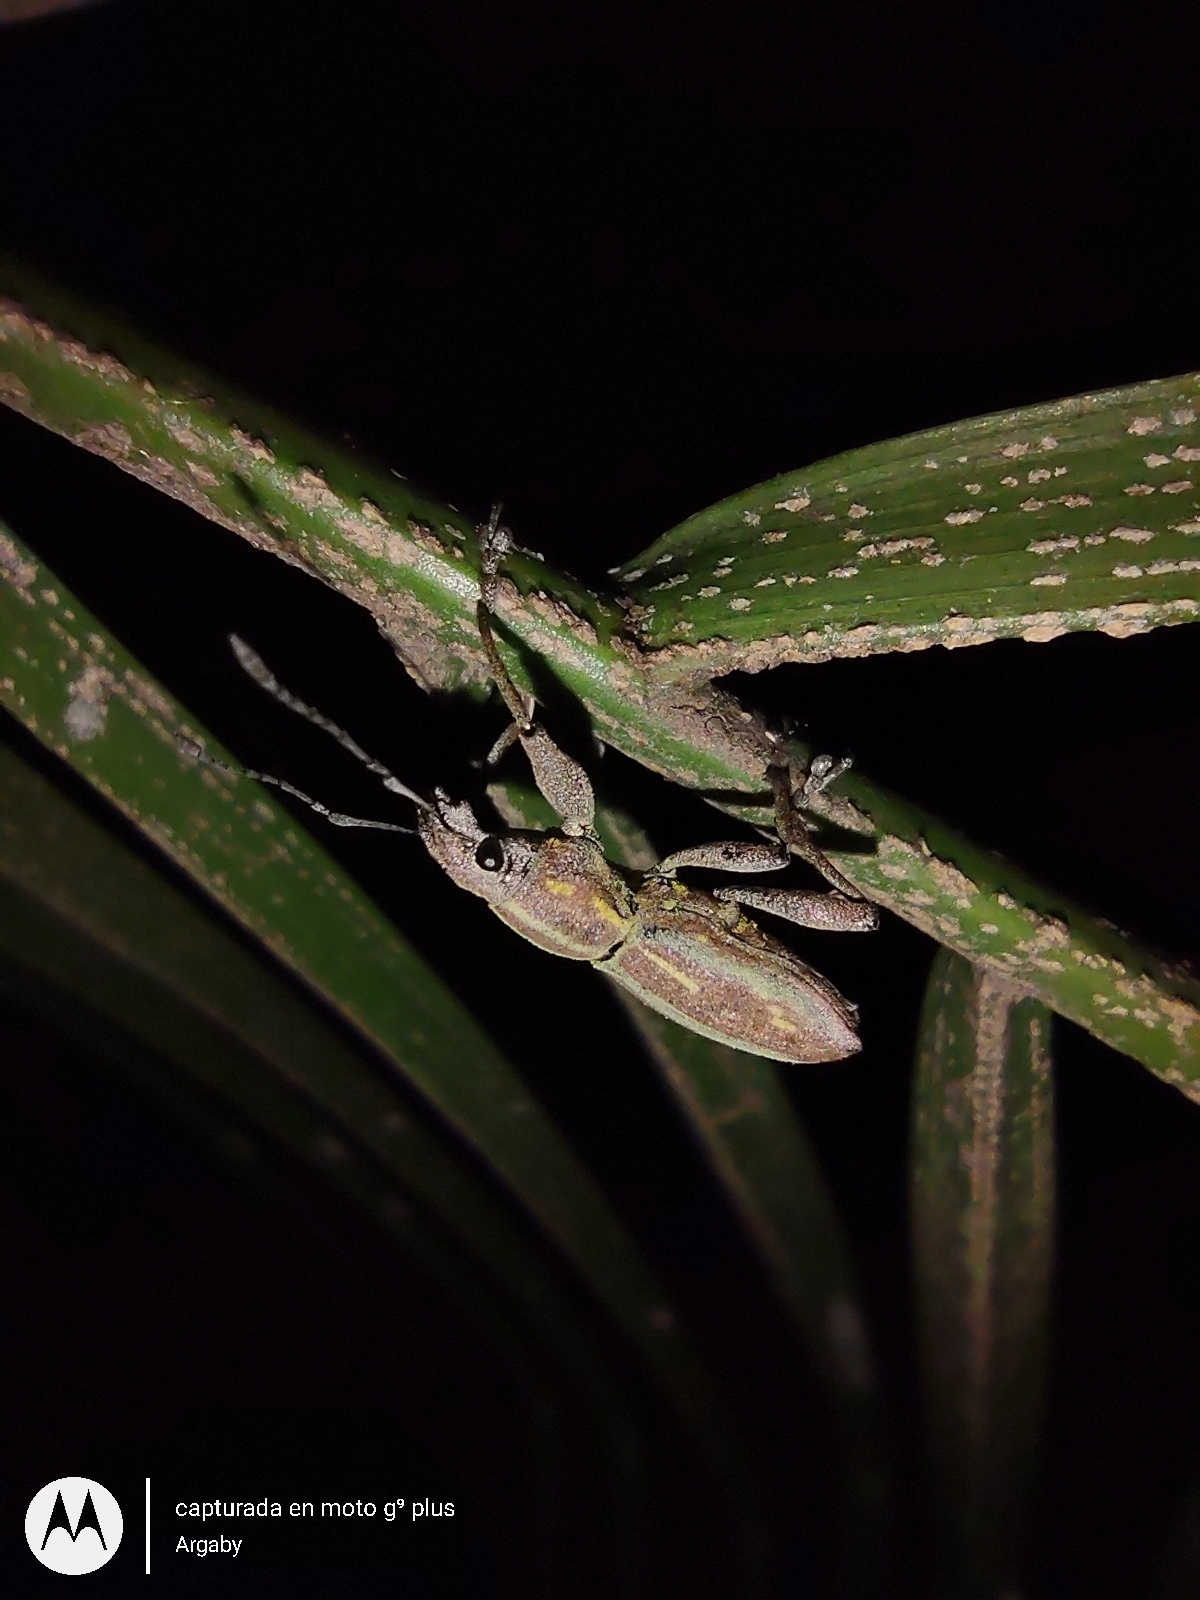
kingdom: Animalia
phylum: Arthropoda
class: Insecta
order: Coleoptera
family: Curculionidae
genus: Naupactus
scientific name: Naupactus xanthographus
